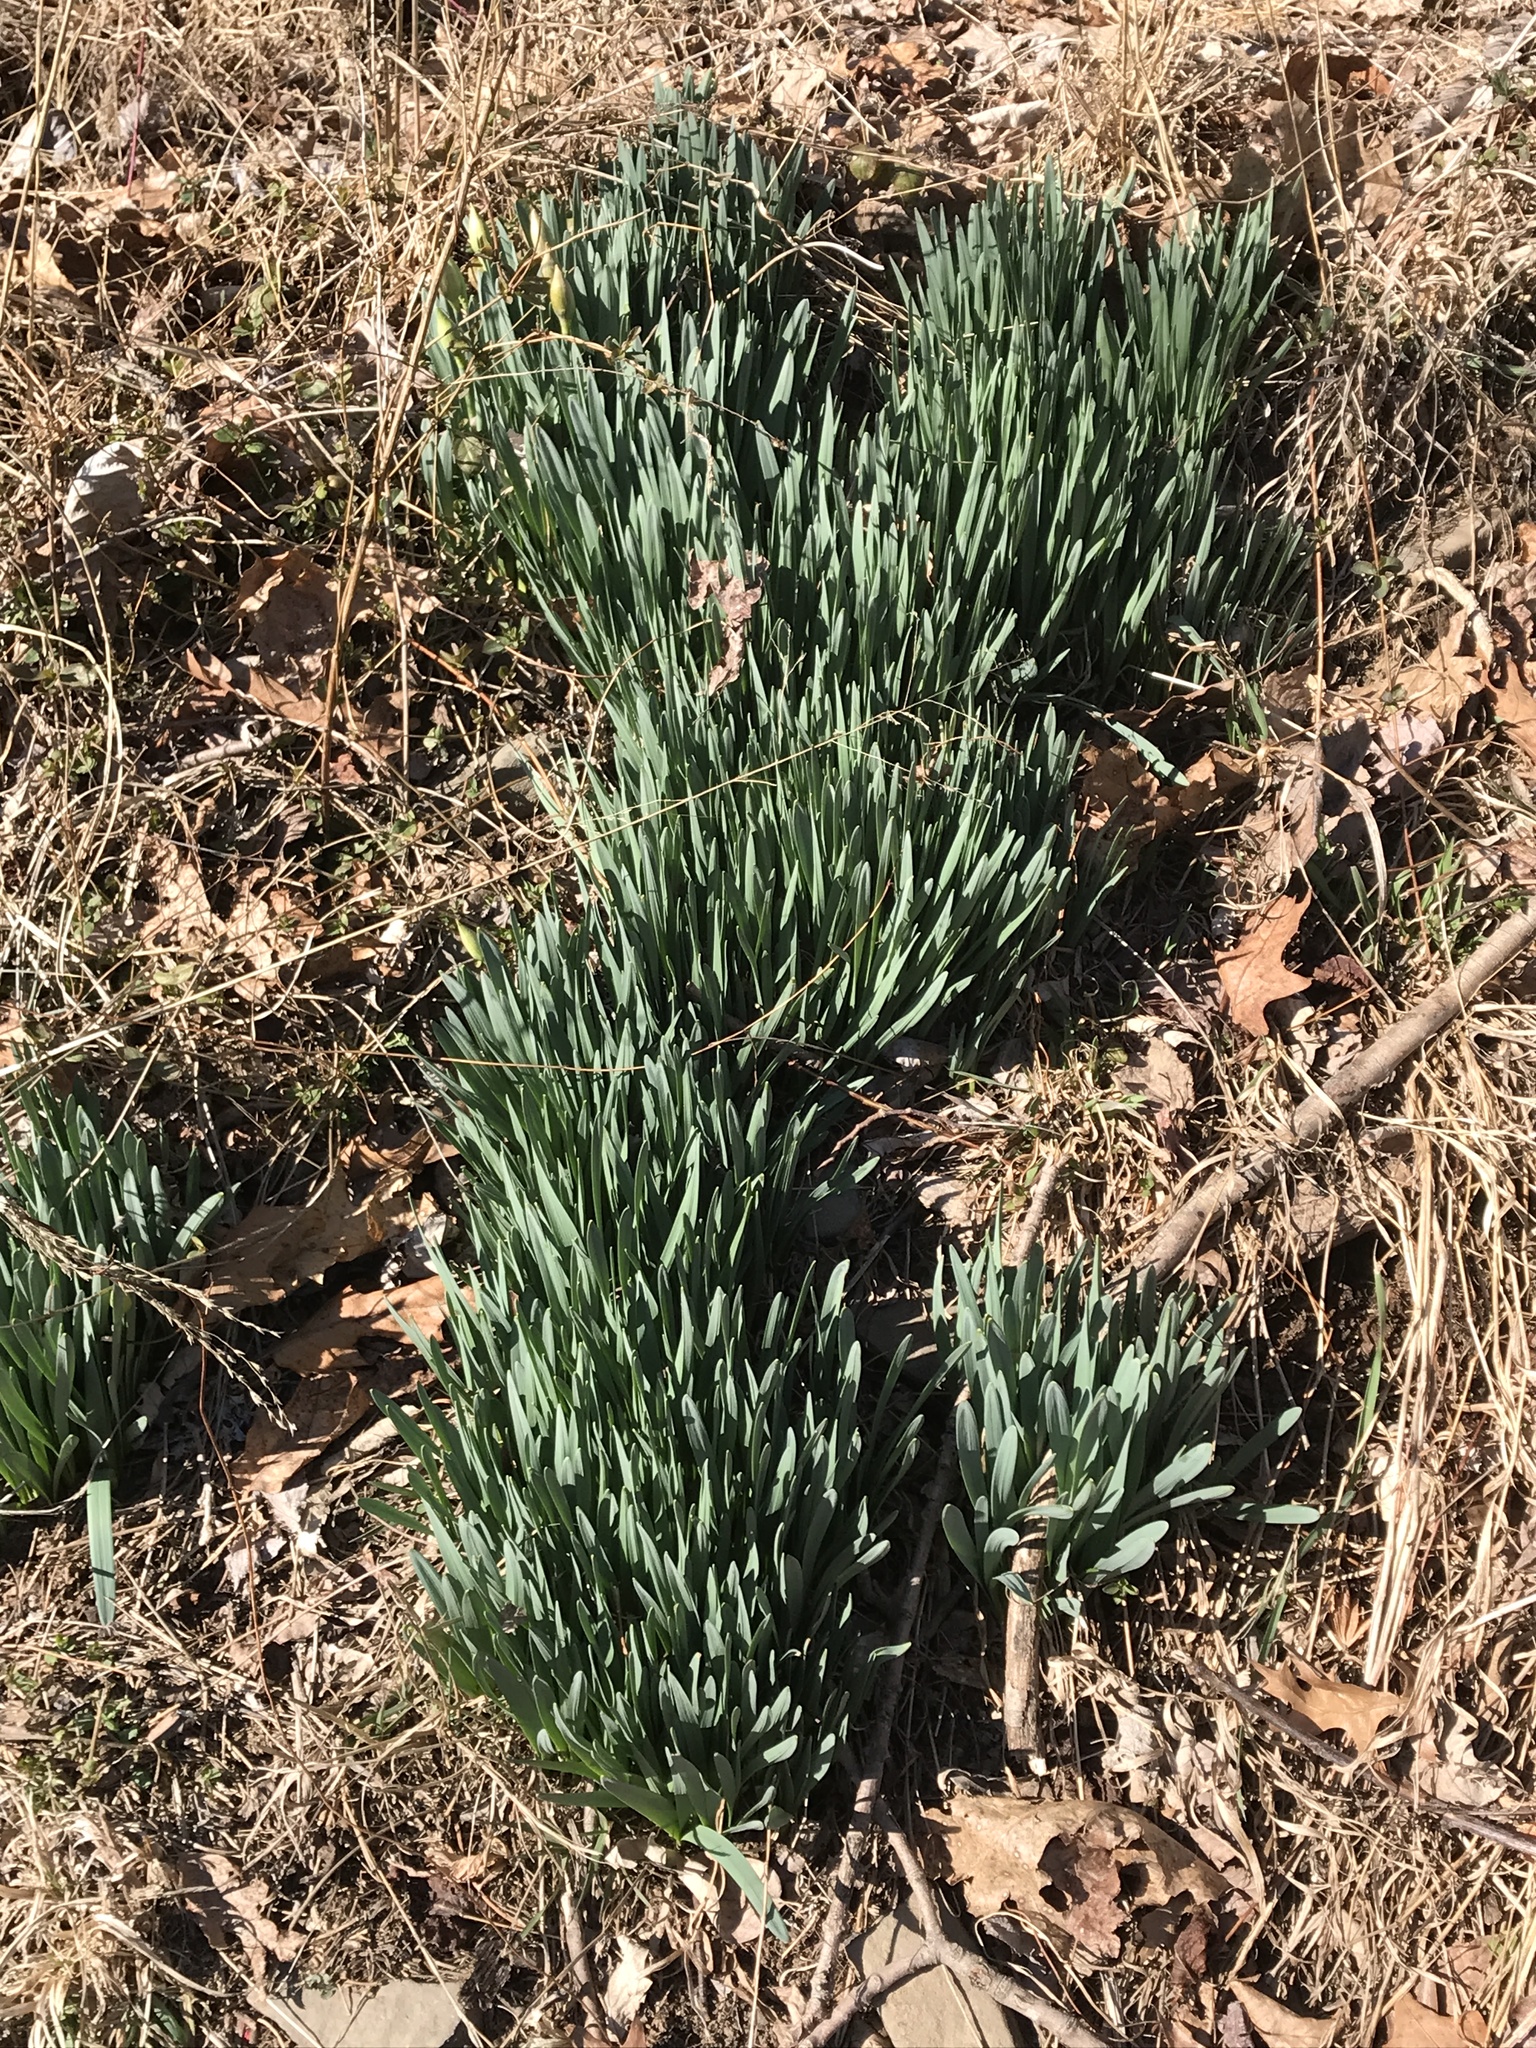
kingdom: Plantae
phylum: Tracheophyta
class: Liliopsida
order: Asparagales
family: Amaryllidaceae
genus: Narcissus
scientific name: Narcissus
